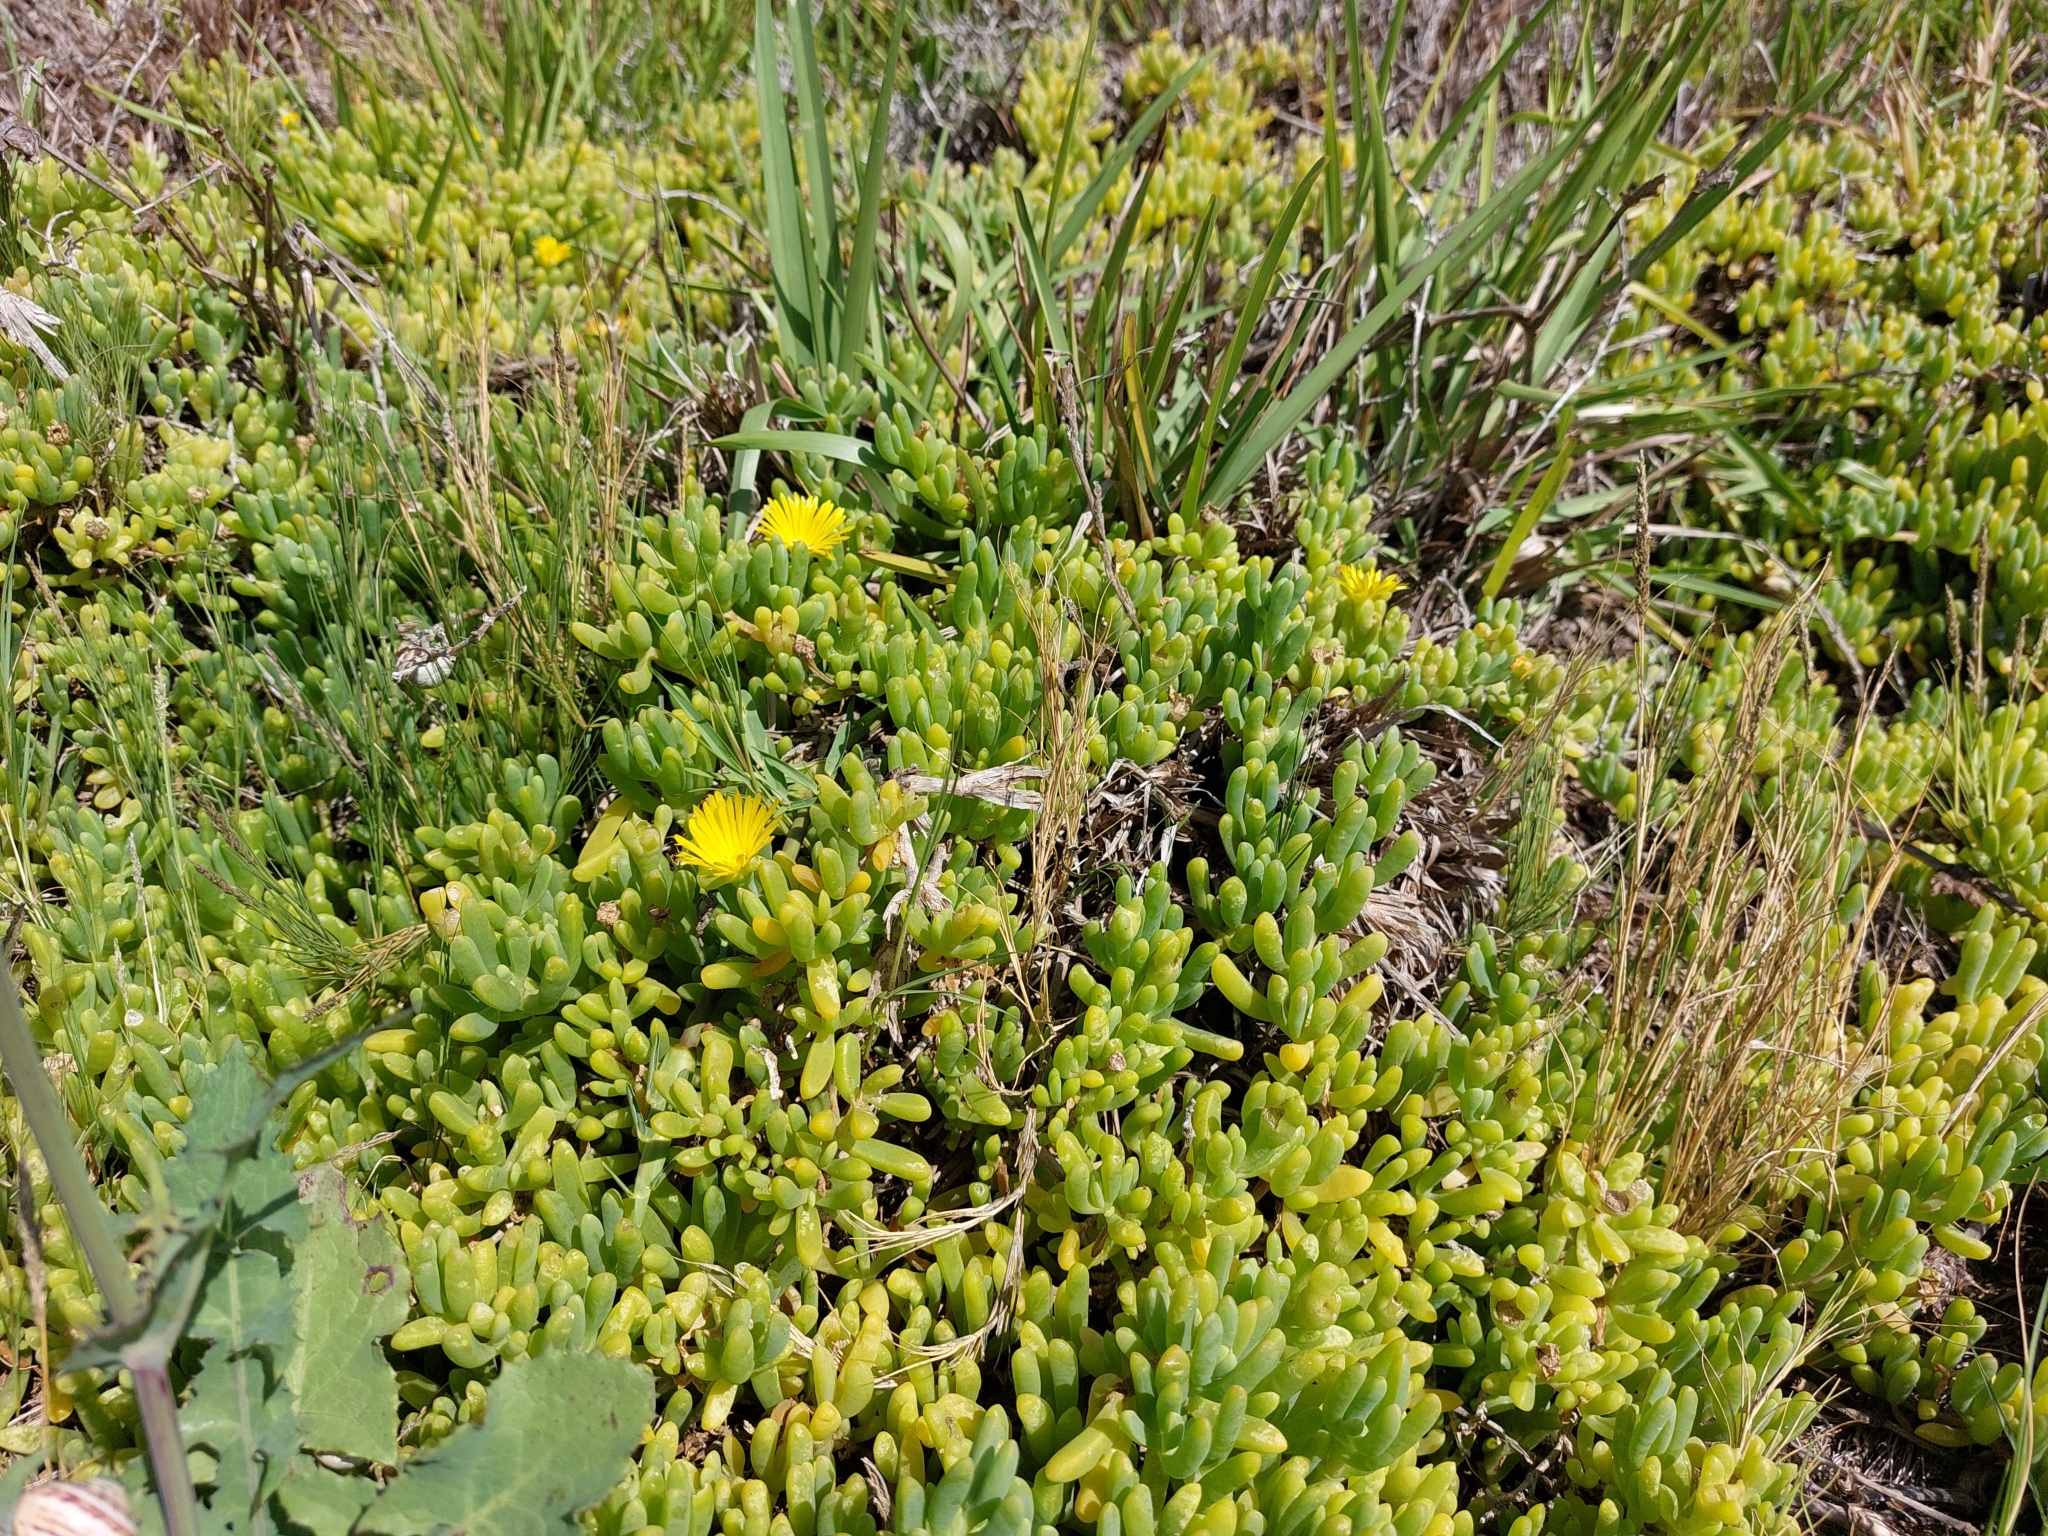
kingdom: Plantae
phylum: Tracheophyta
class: Magnoliopsida
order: Caryophyllales
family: Aizoaceae
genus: Malephora
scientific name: Malephora lutea
